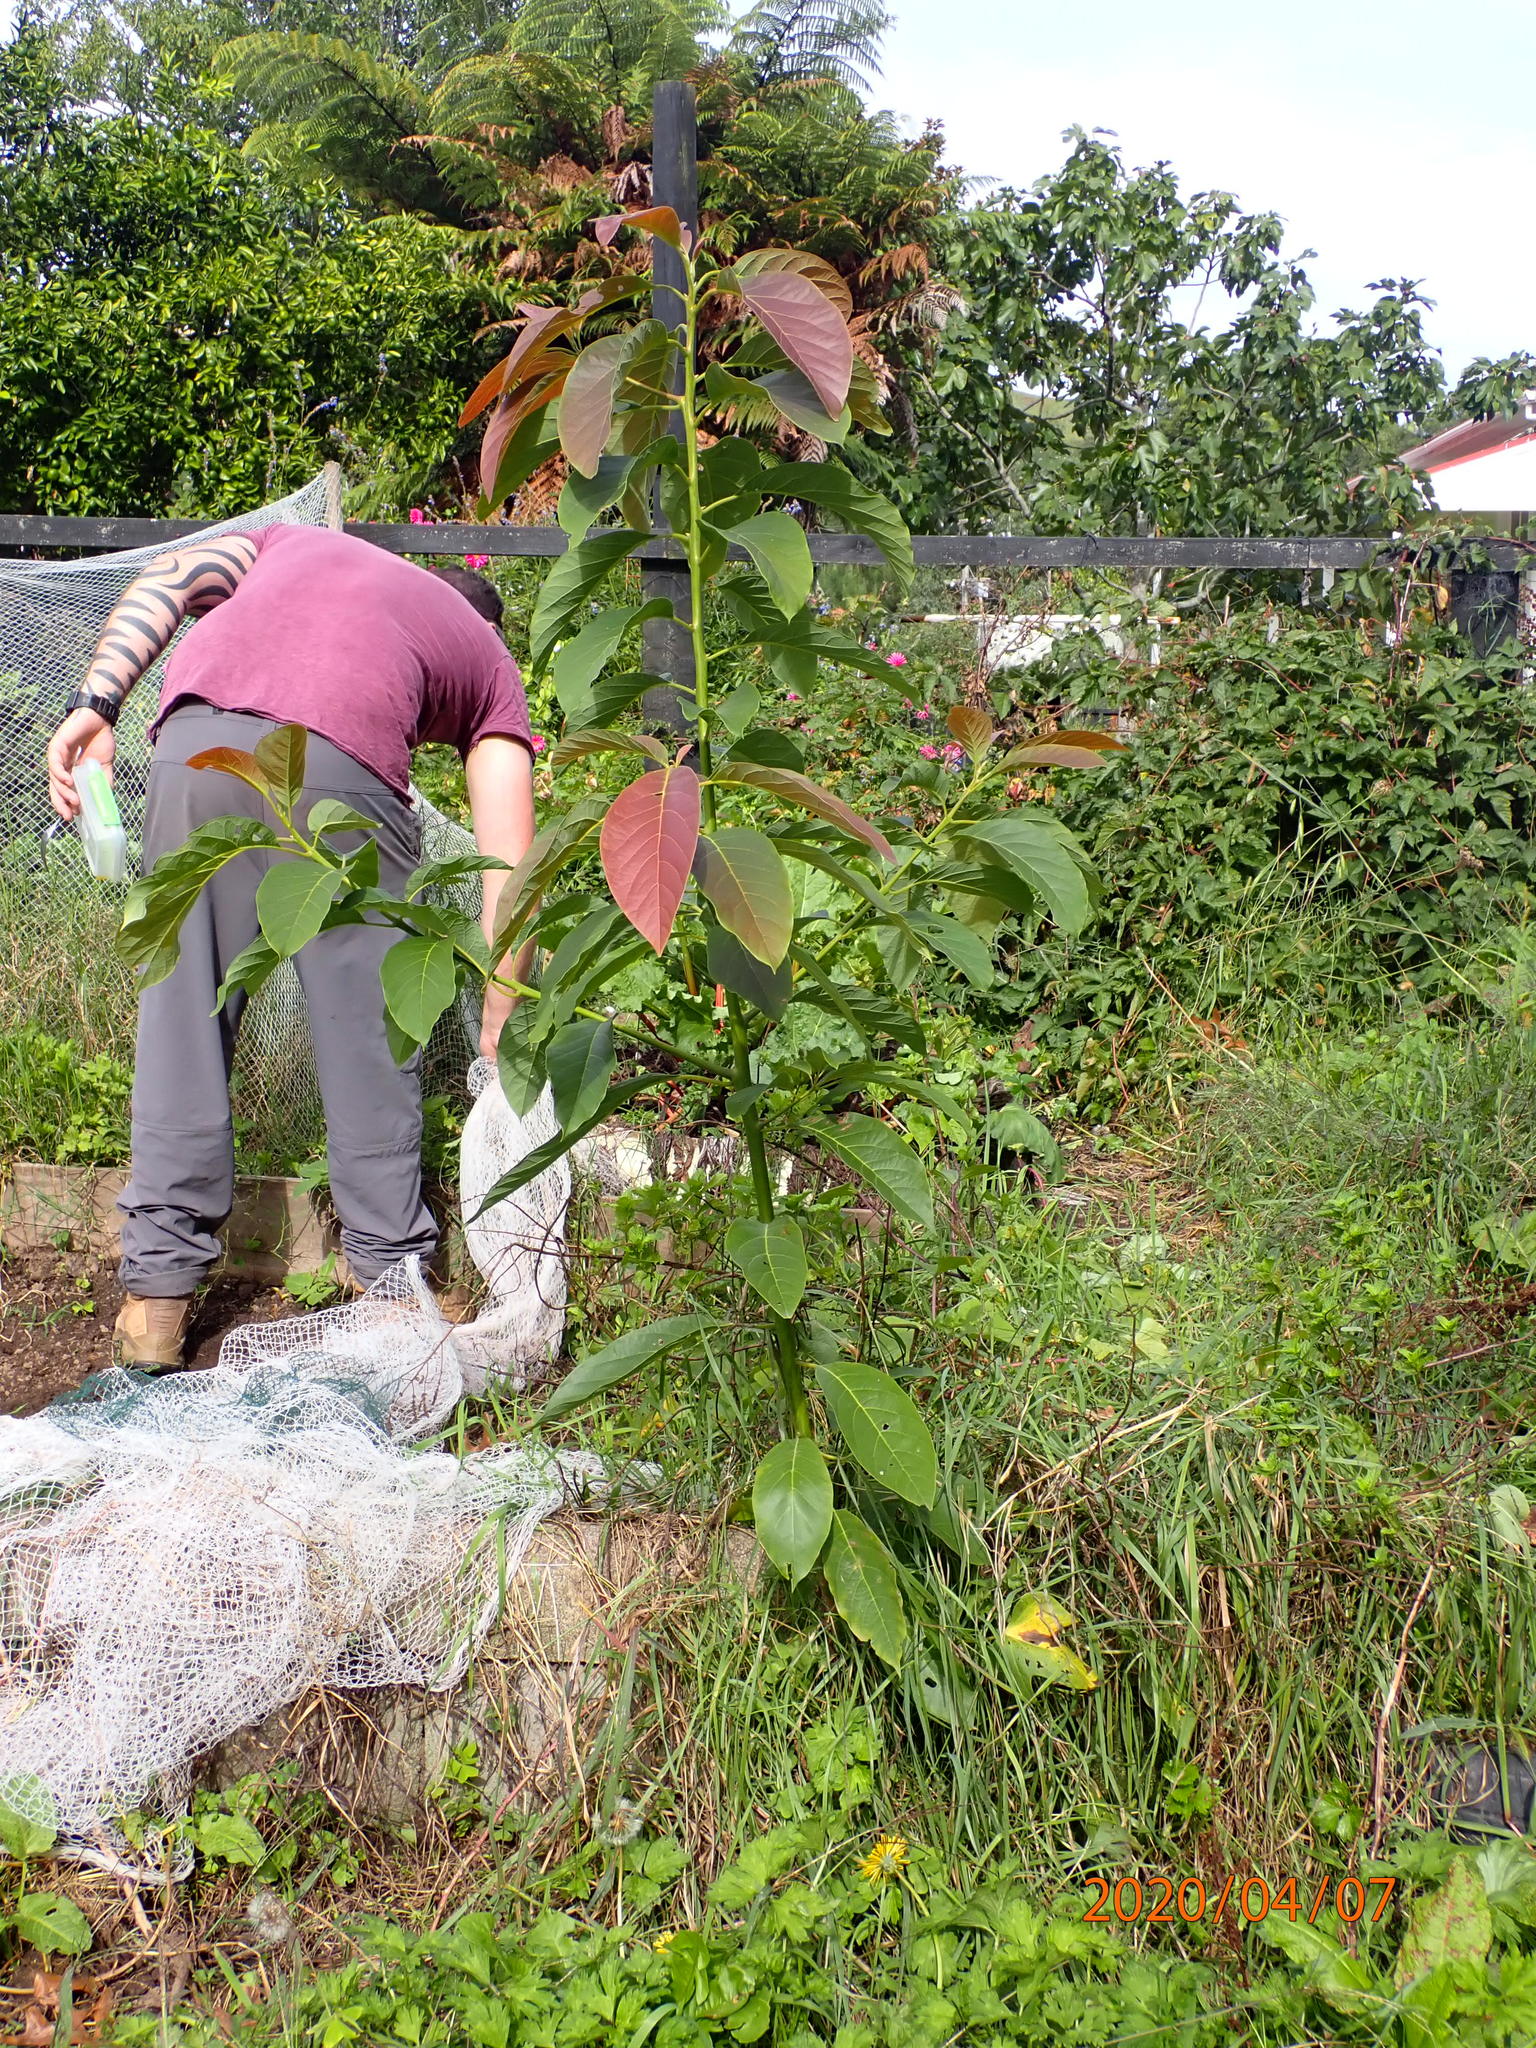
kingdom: Plantae
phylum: Tracheophyta
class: Magnoliopsida
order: Laurales
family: Lauraceae
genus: Persea
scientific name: Persea americana
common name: Avocado
